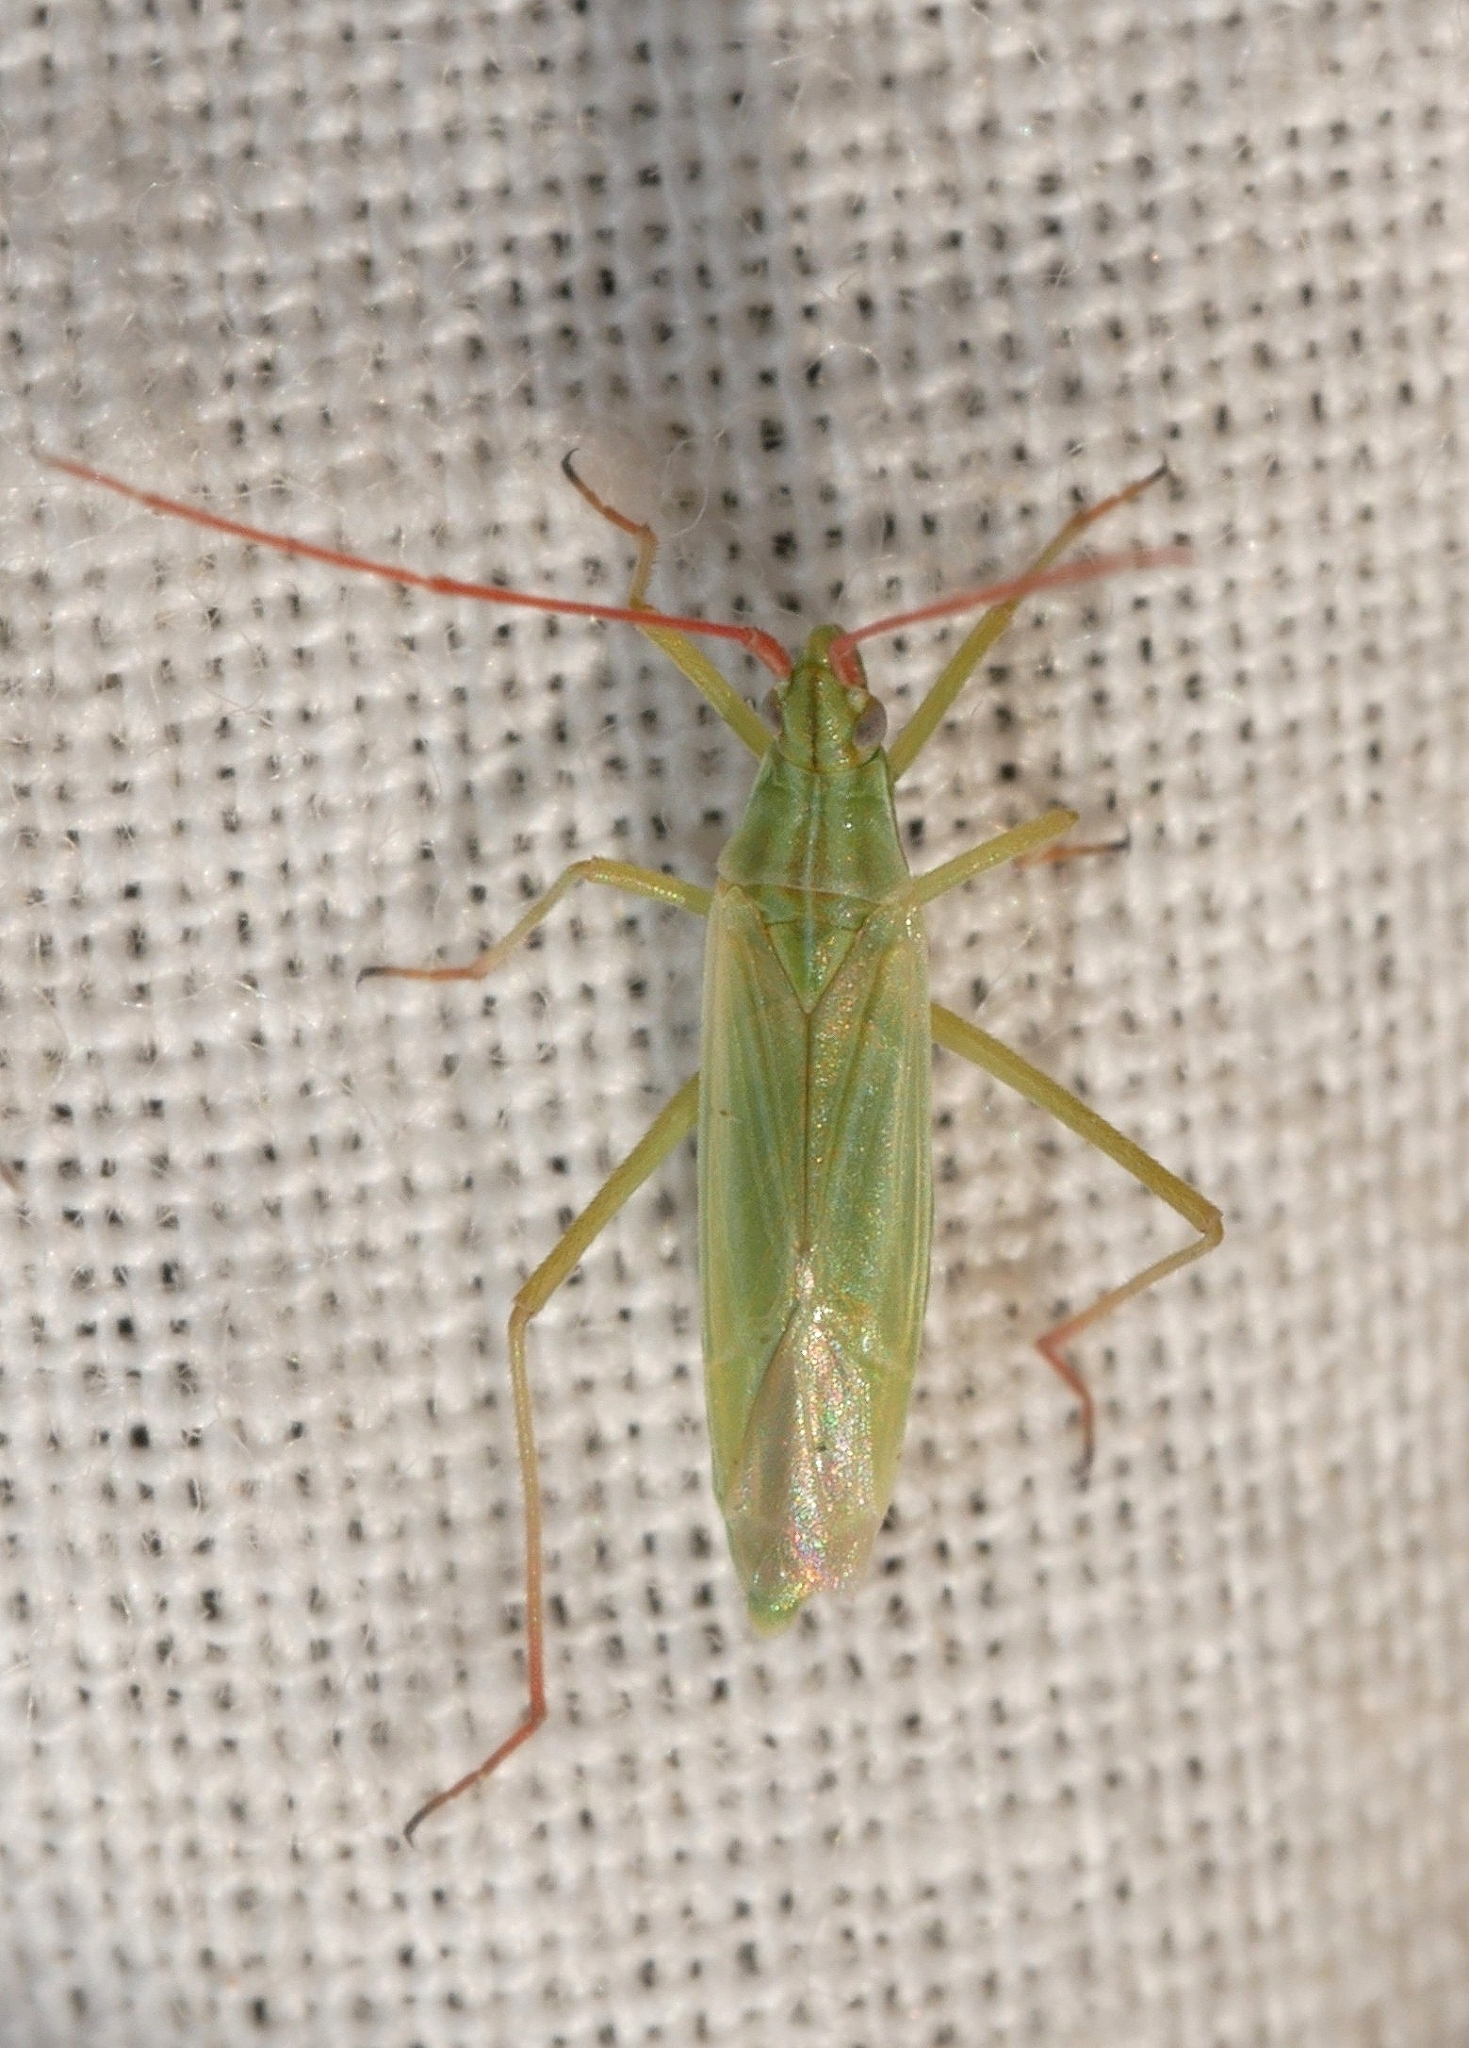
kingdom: Animalia
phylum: Arthropoda
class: Insecta
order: Hemiptera
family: Miridae
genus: Trigonotylus
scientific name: Trigonotylus caelestialium
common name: Rice leaf bug
